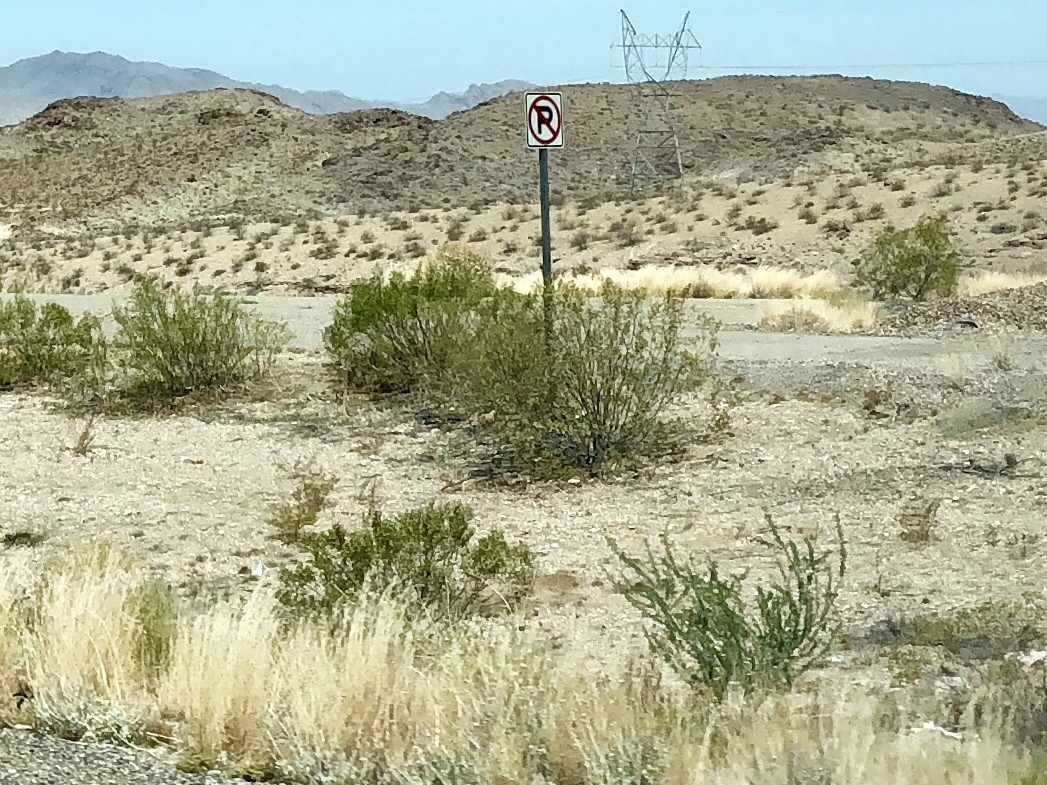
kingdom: Plantae
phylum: Tracheophyta
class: Magnoliopsida
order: Zygophyllales
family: Zygophyllaceae
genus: Larrea
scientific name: Larrea tridentata
